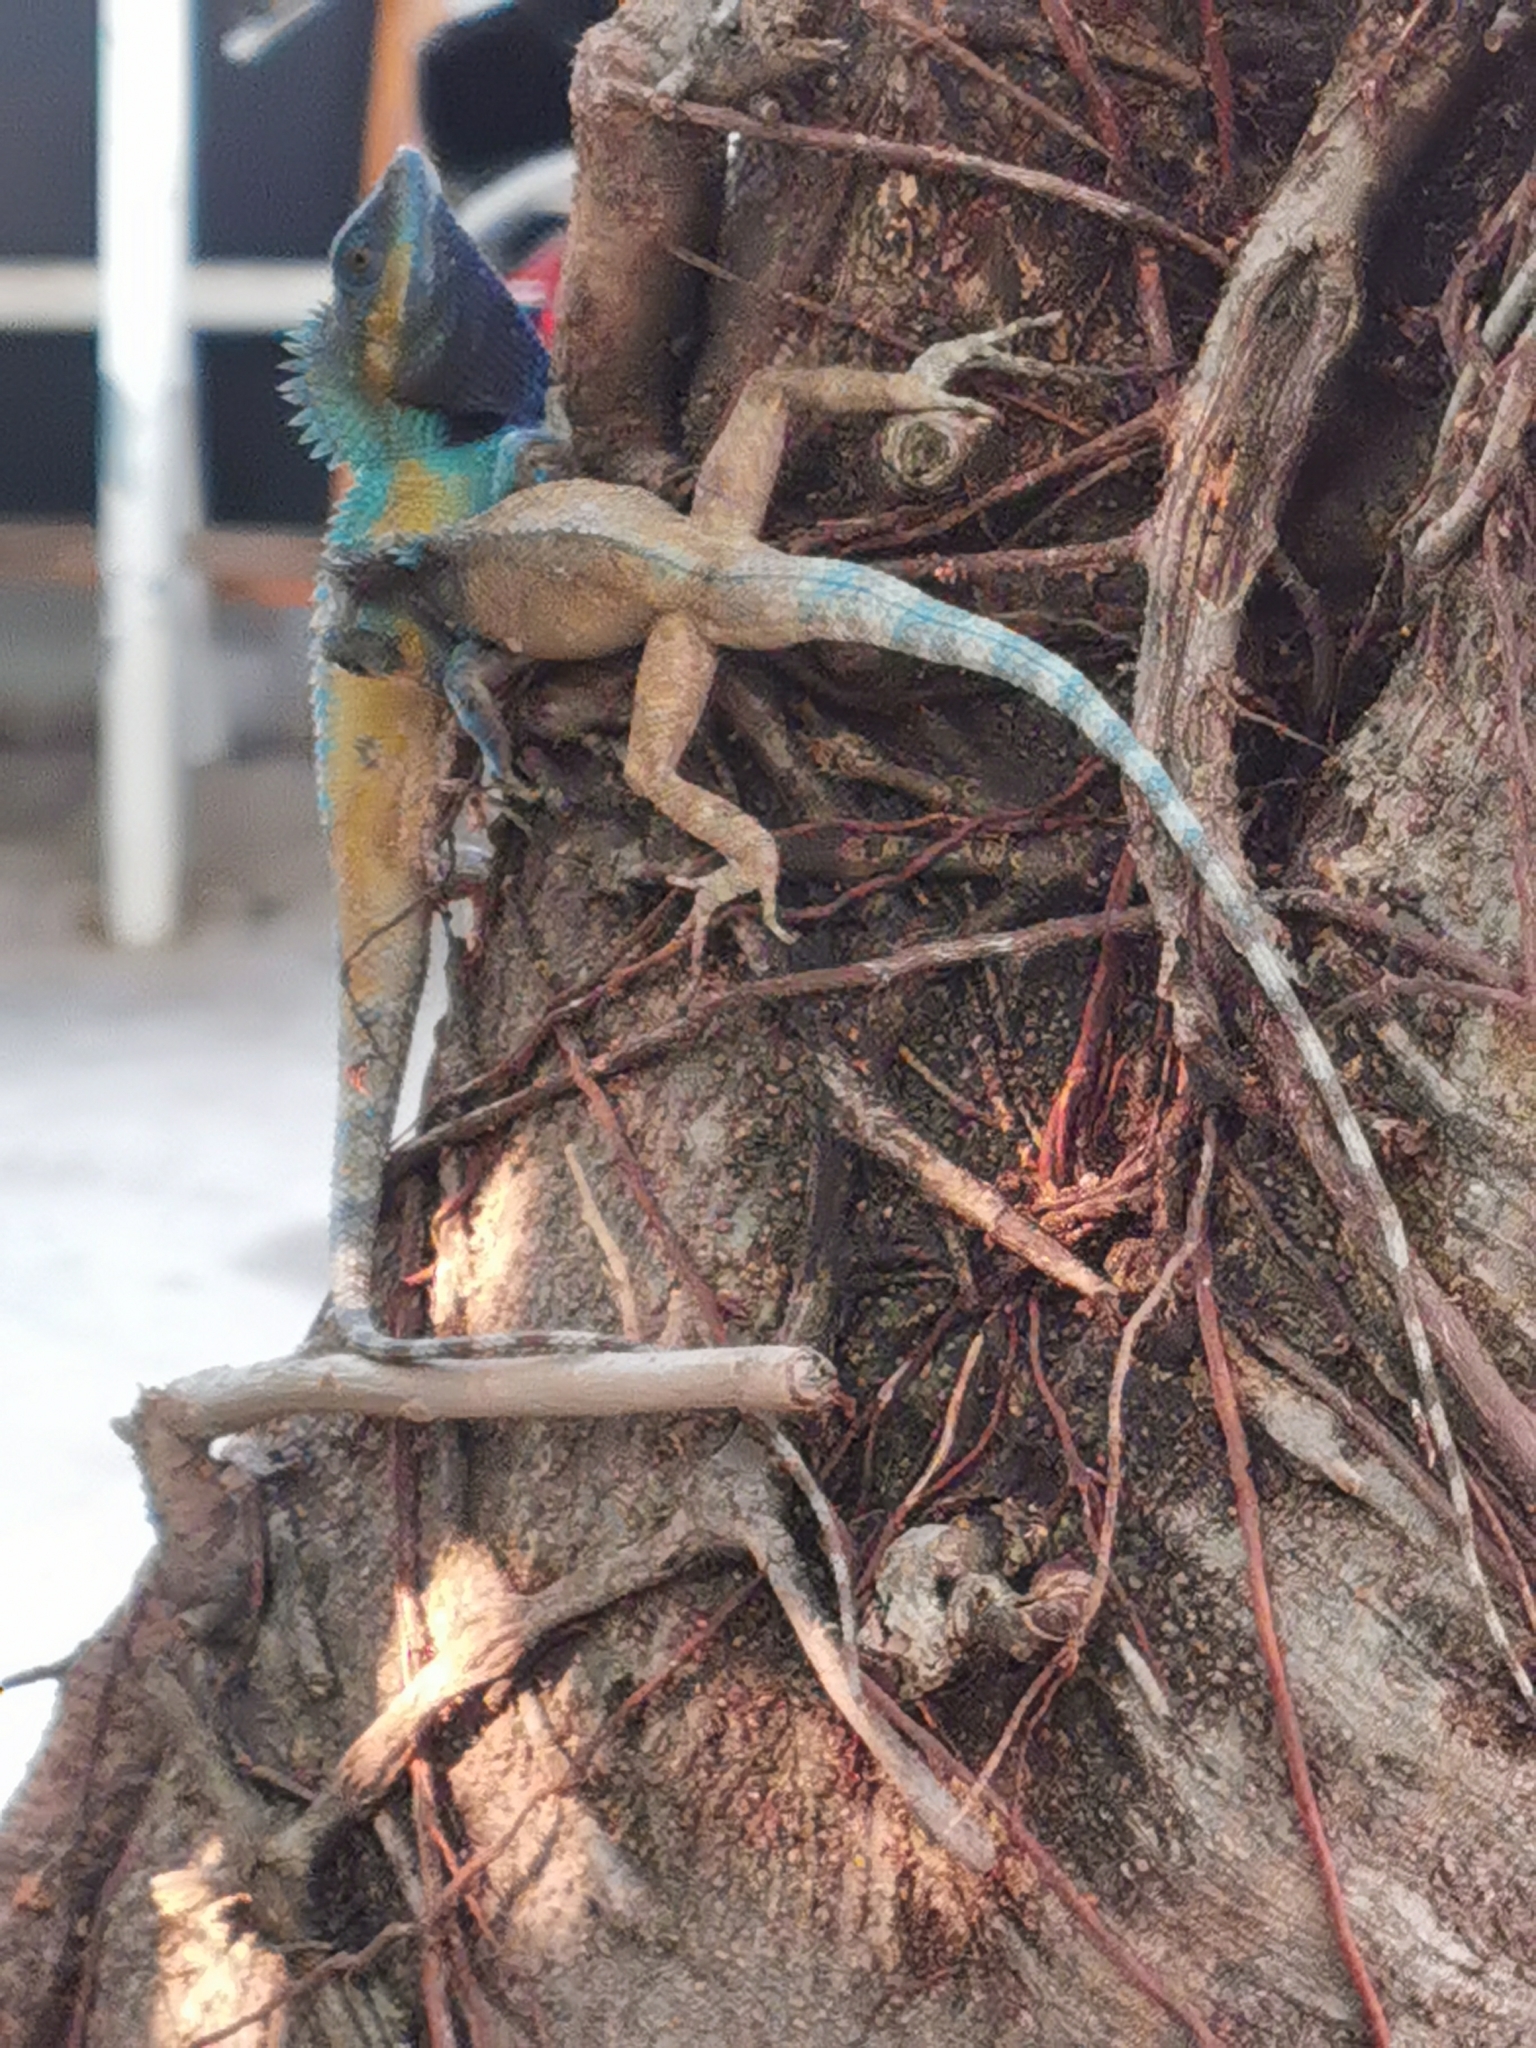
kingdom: Animalia
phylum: Chordata
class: Squamata
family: Agamidae
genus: Calotes
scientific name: Calotes bachae
